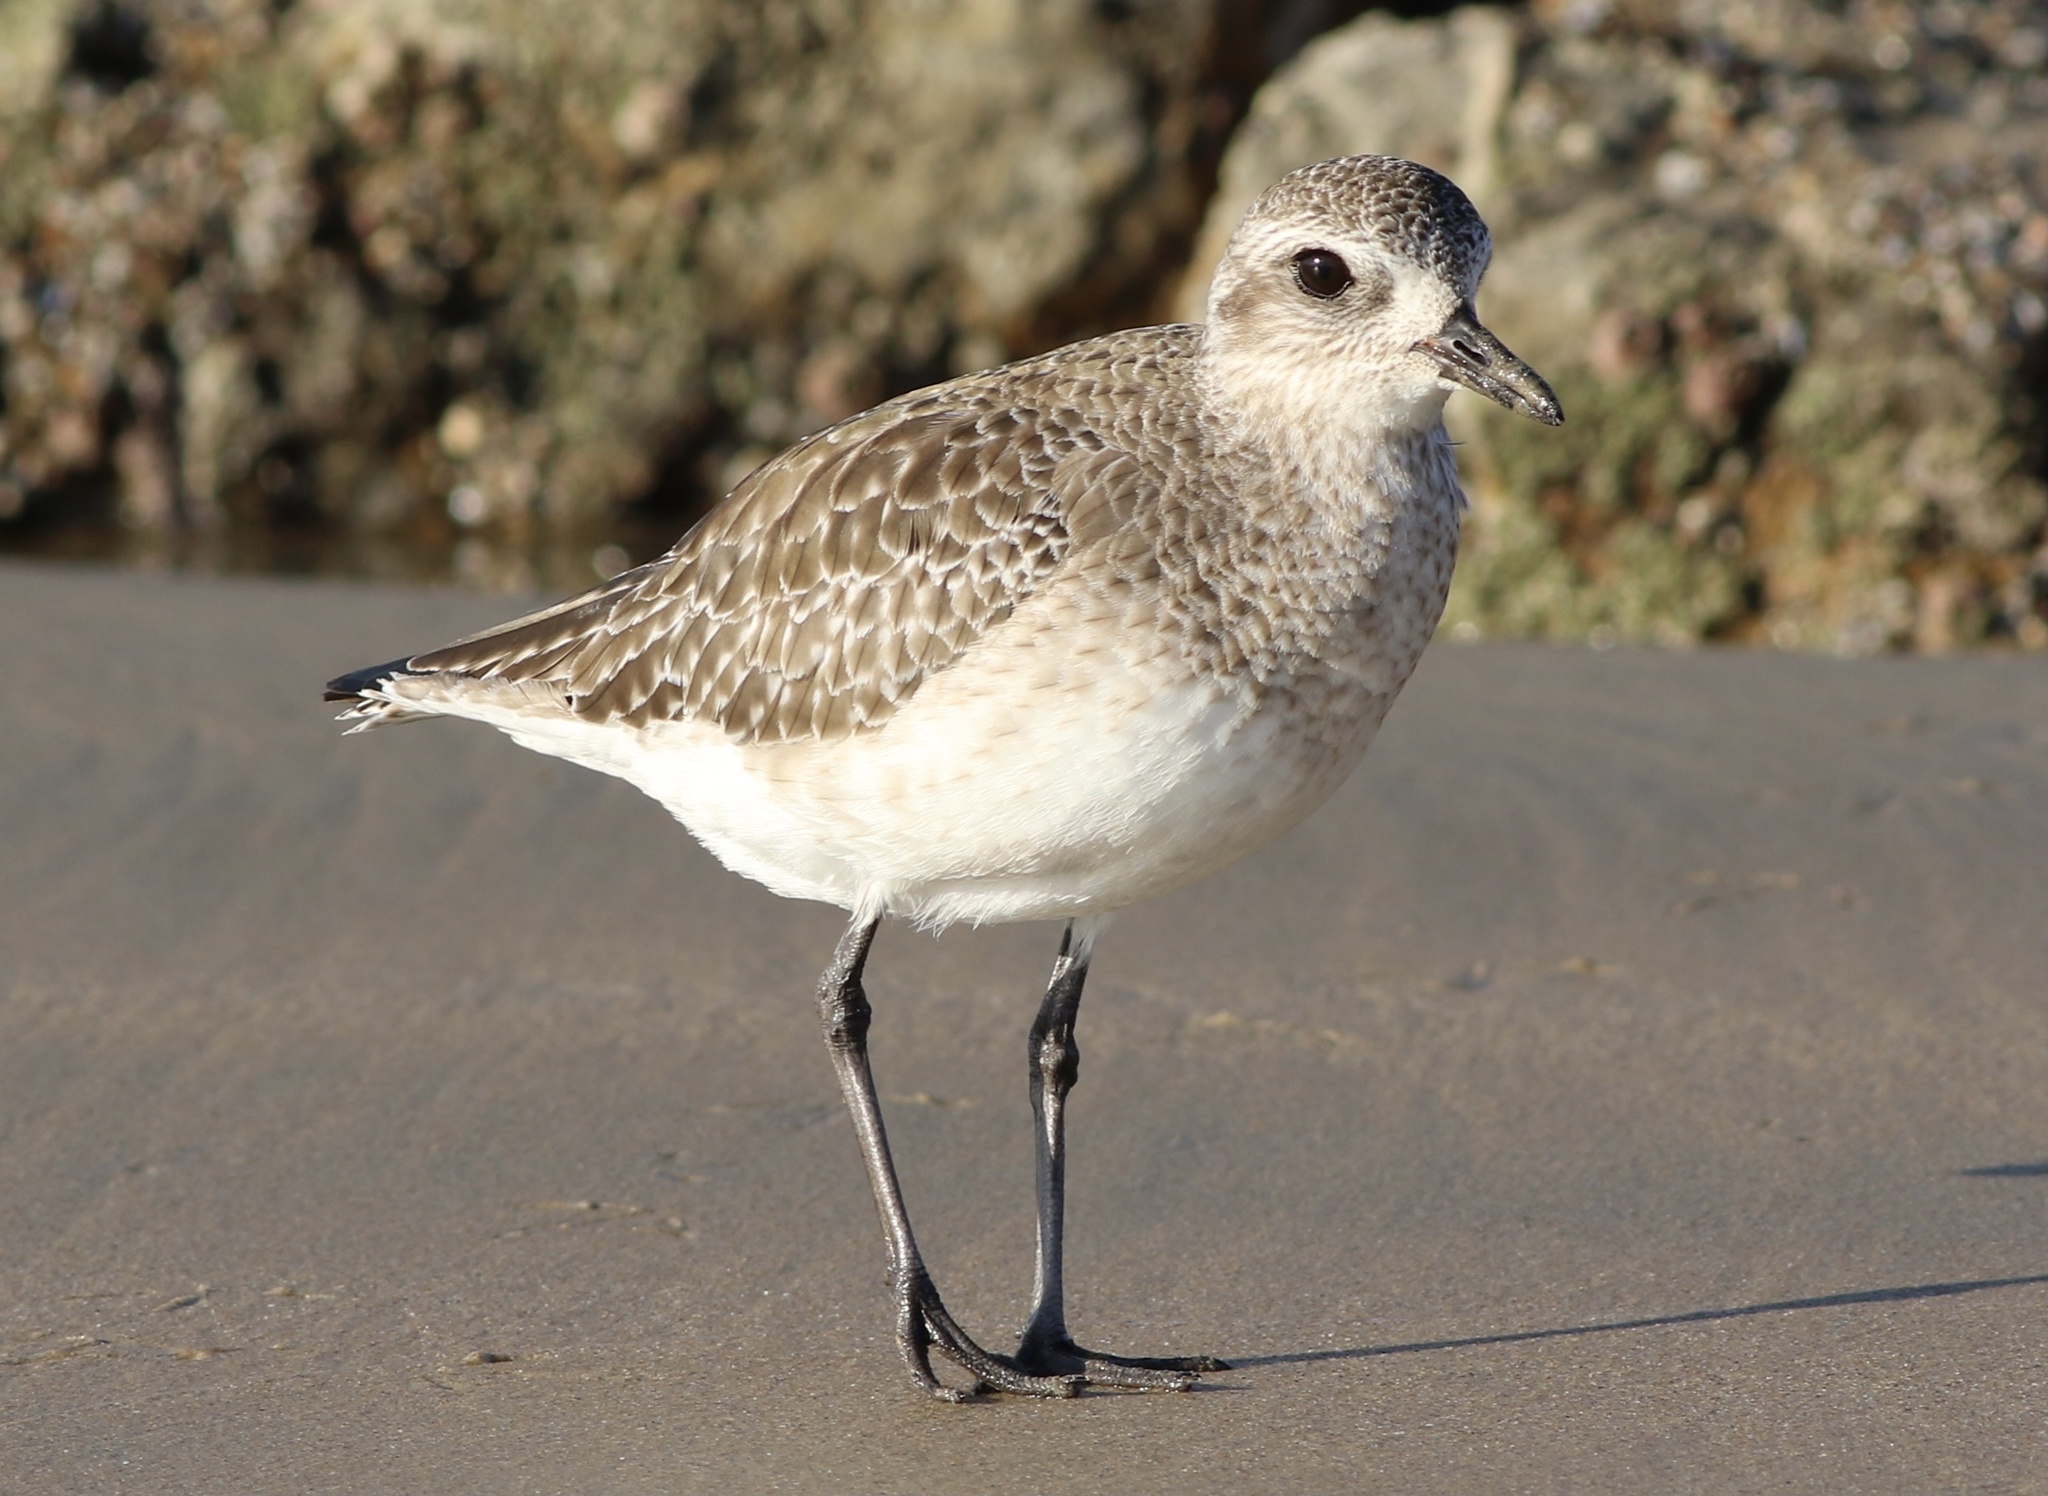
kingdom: Animalia
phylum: Chordata
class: Aves
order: Charadriiformes
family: Charadriidae
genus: Pluvialis
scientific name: Pluvialis squatarola
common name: Grey plover
